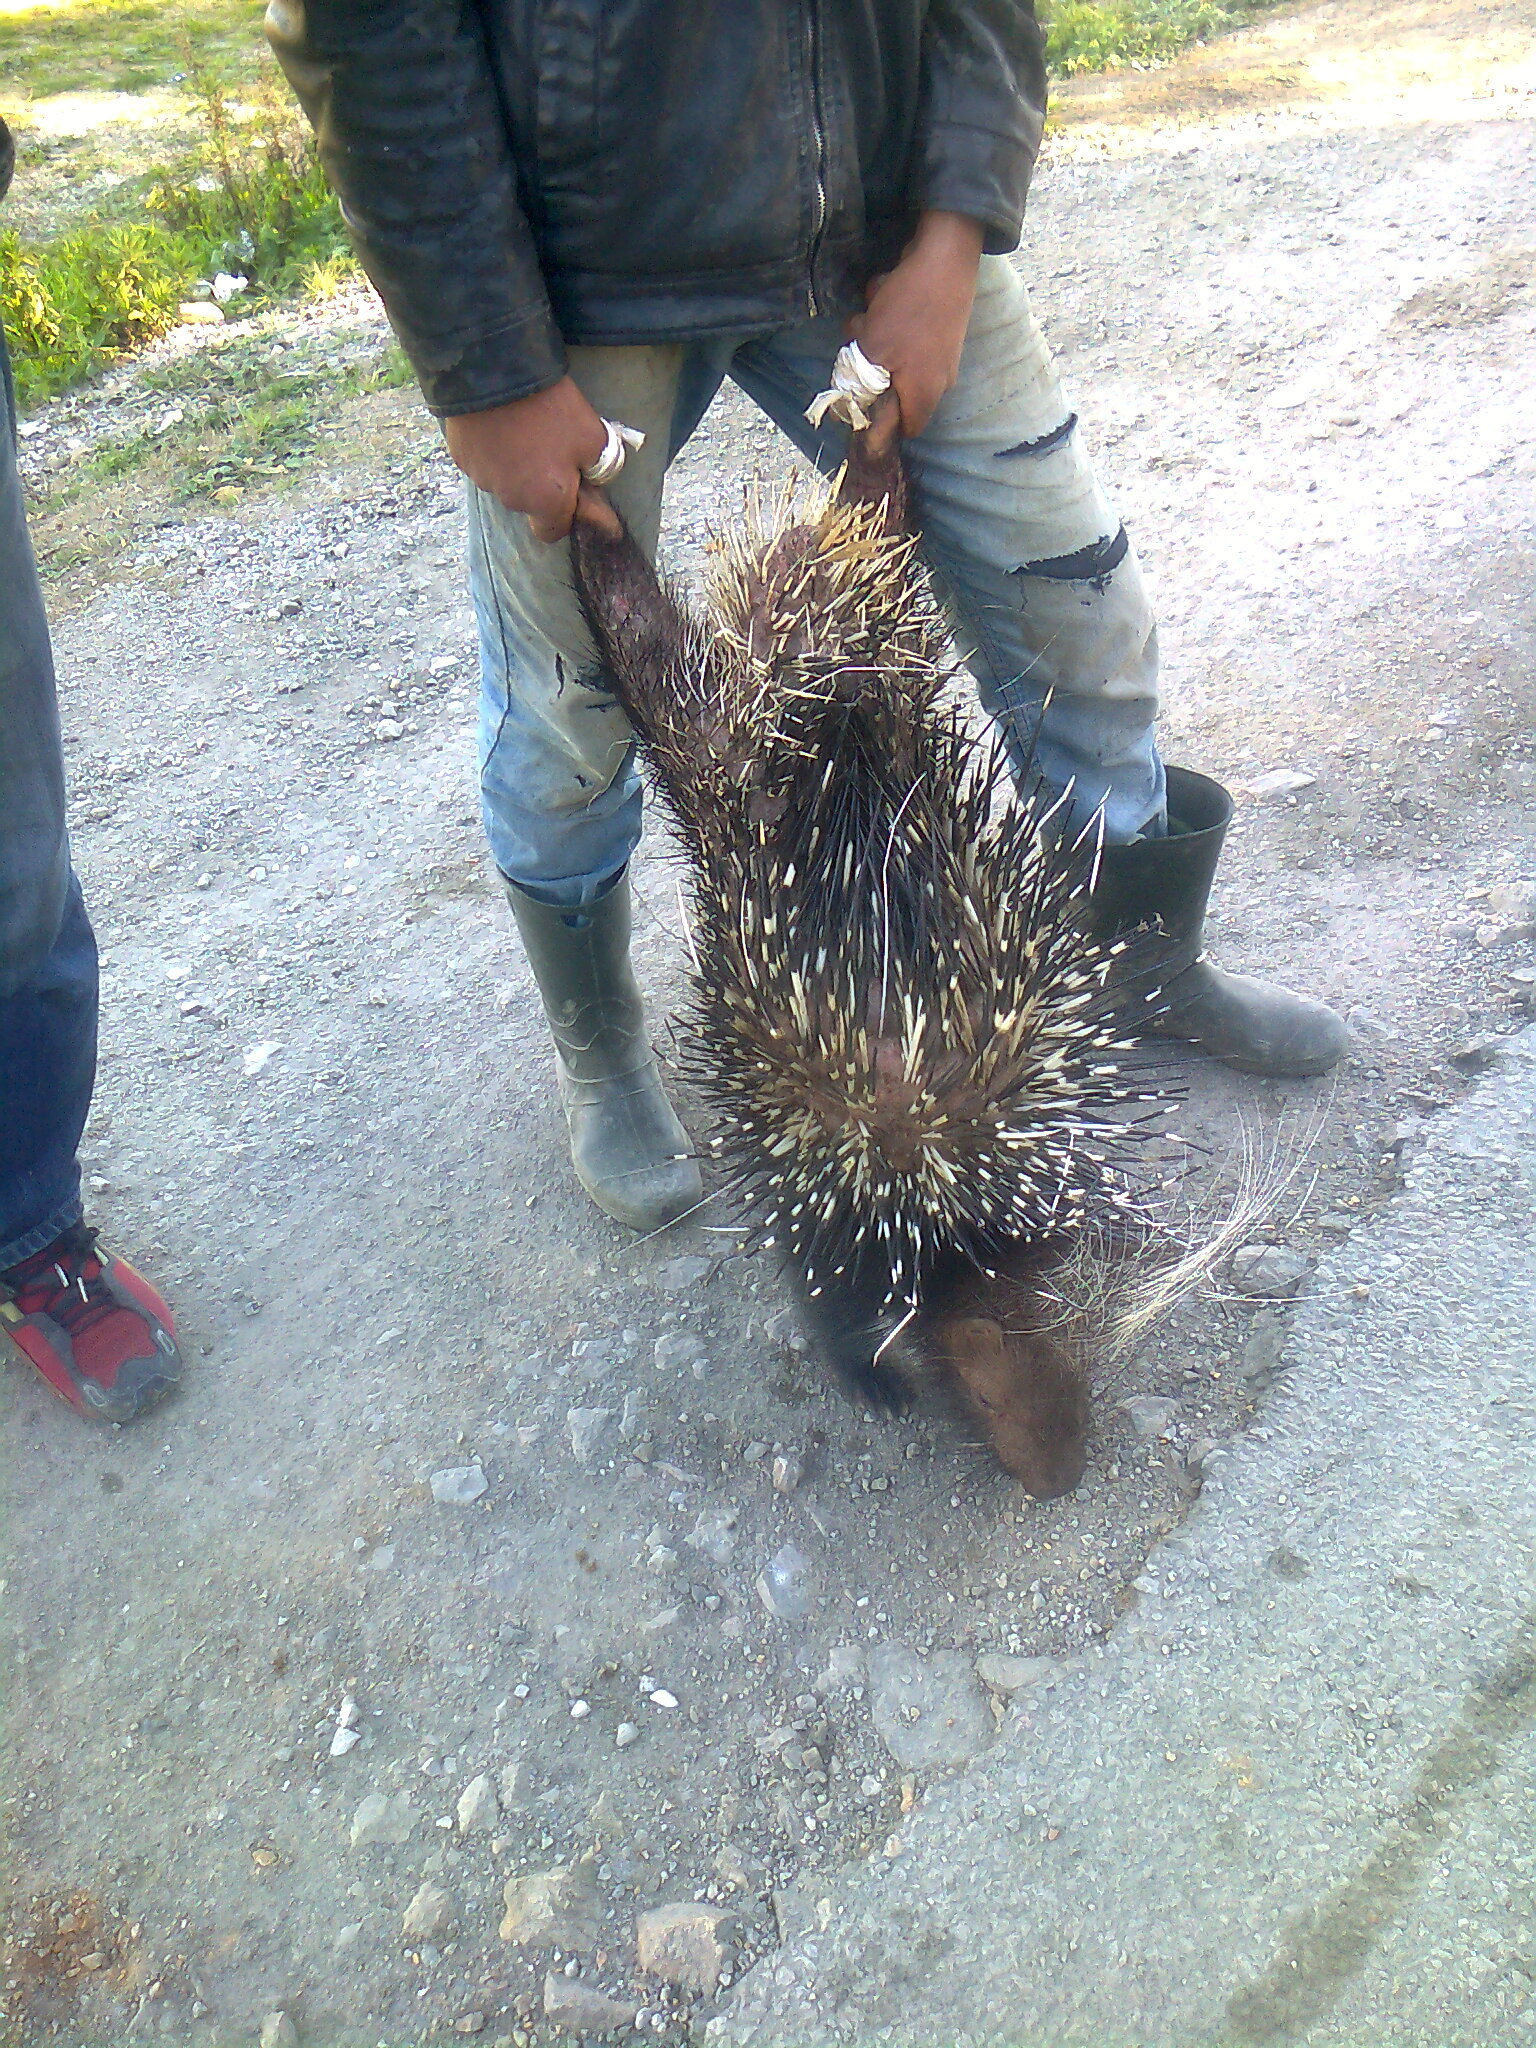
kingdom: Animalia
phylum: Chordata
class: Mammalia
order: Rodentia
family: Hystricidae
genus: Hystrix
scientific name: Hystrix cristata
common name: Crested porcupine
